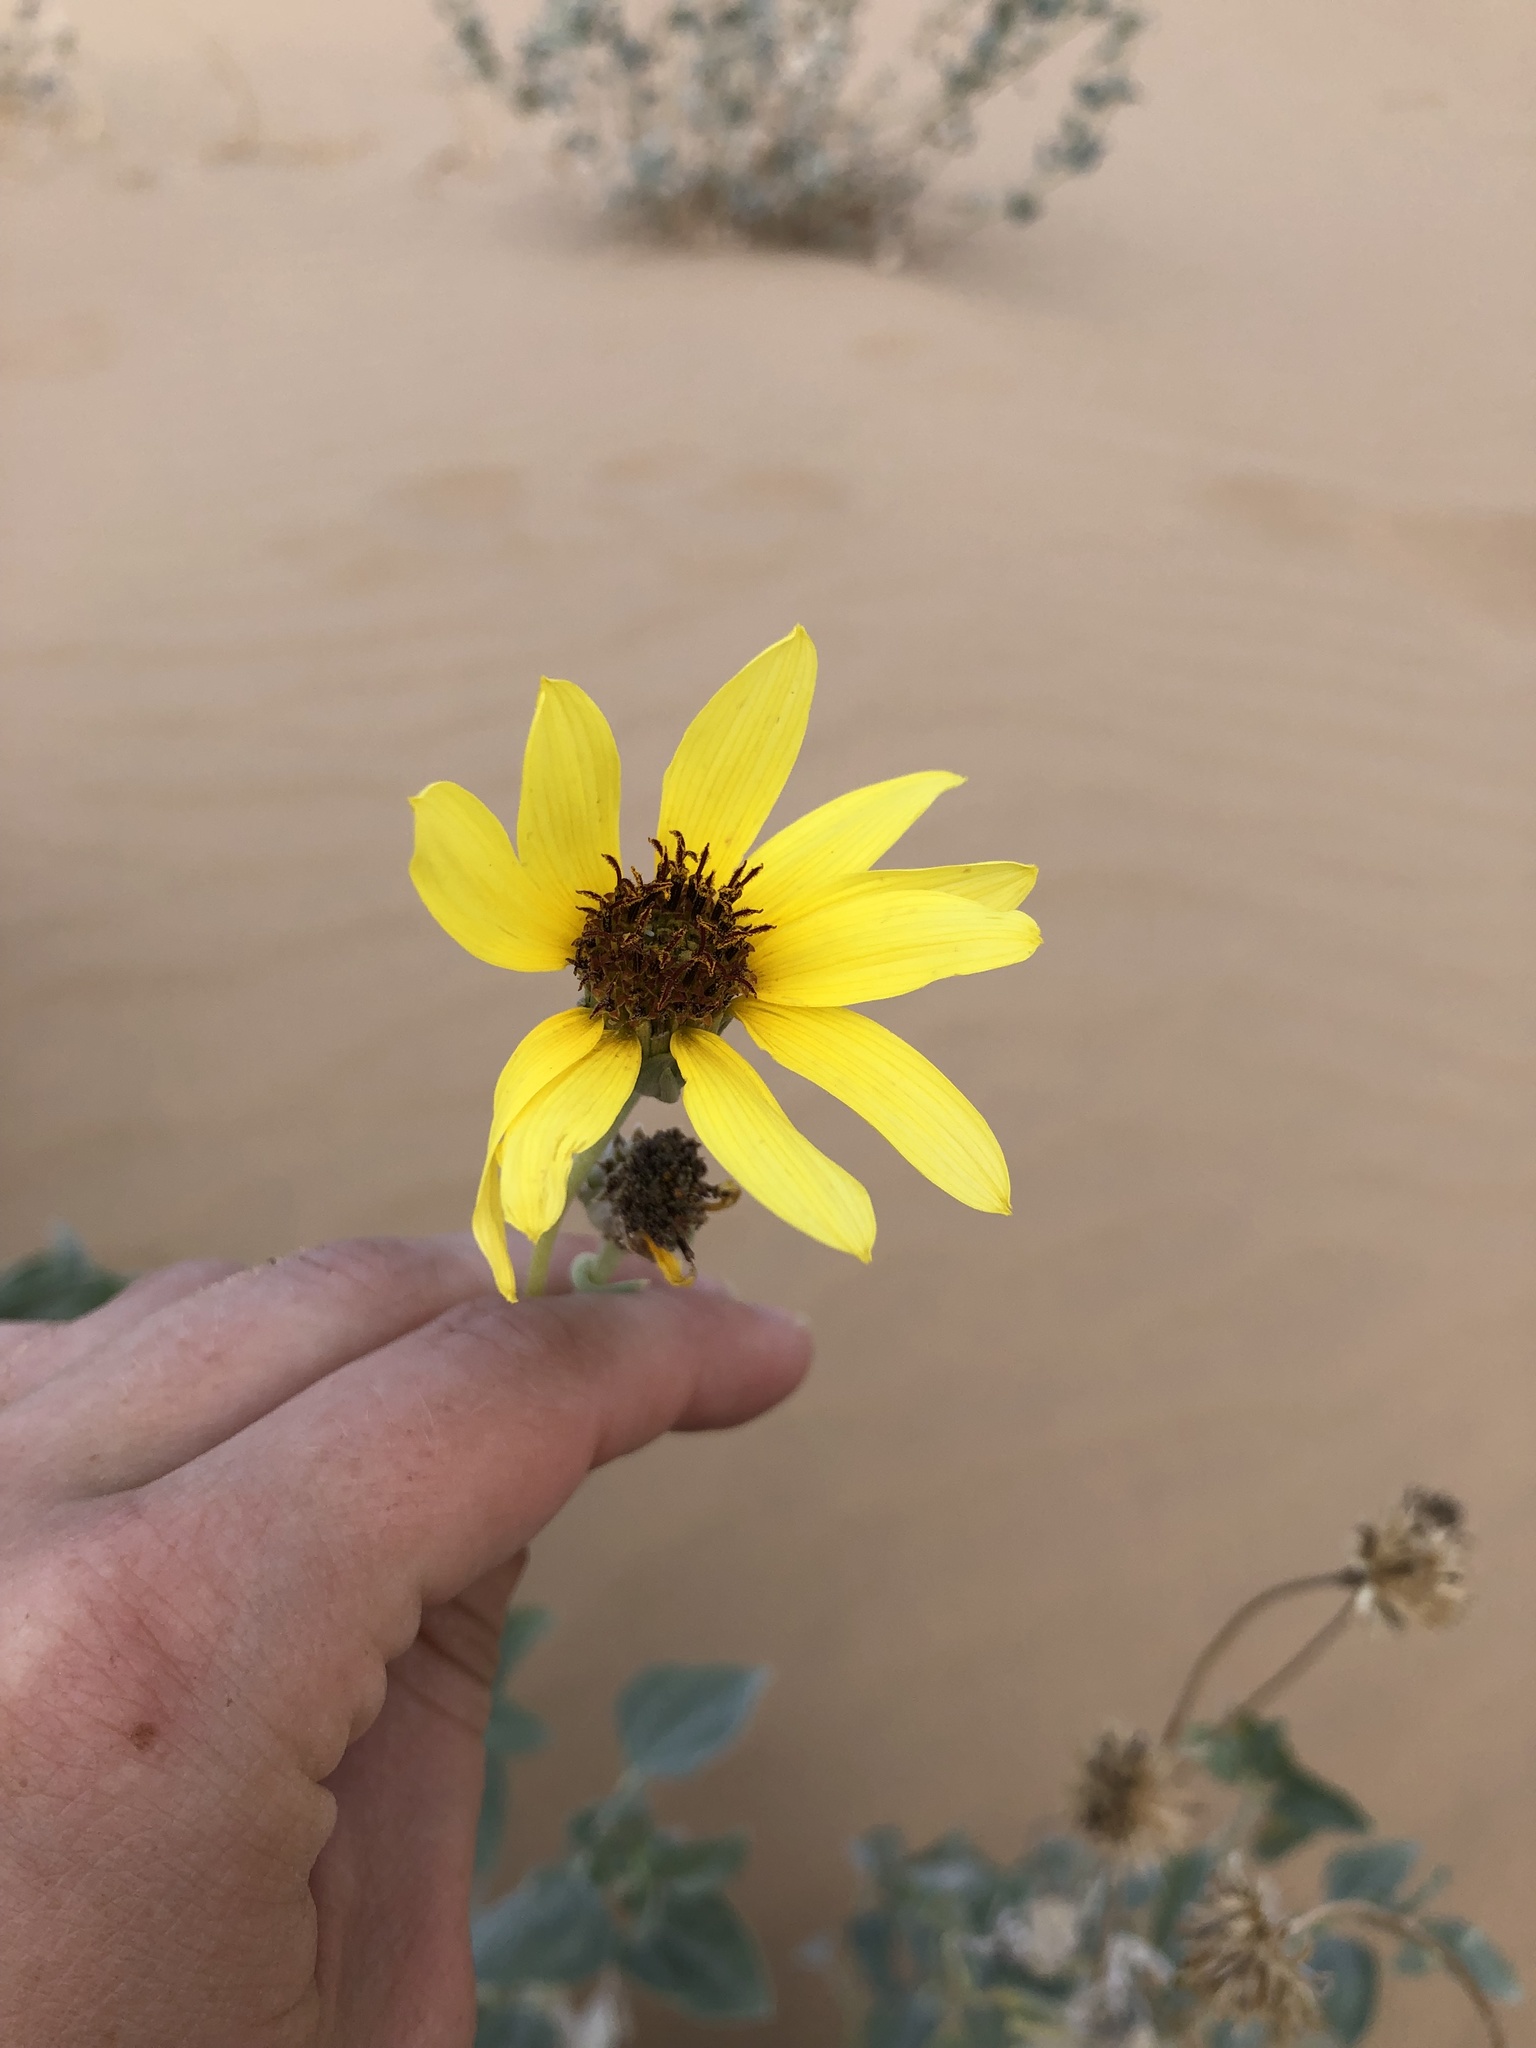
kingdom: Plantae
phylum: Tracheophyta
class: Magnoliopsida
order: Asterales
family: Asteraceae
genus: Helianthus
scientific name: Helianthus niveus
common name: Snowy sunflower
